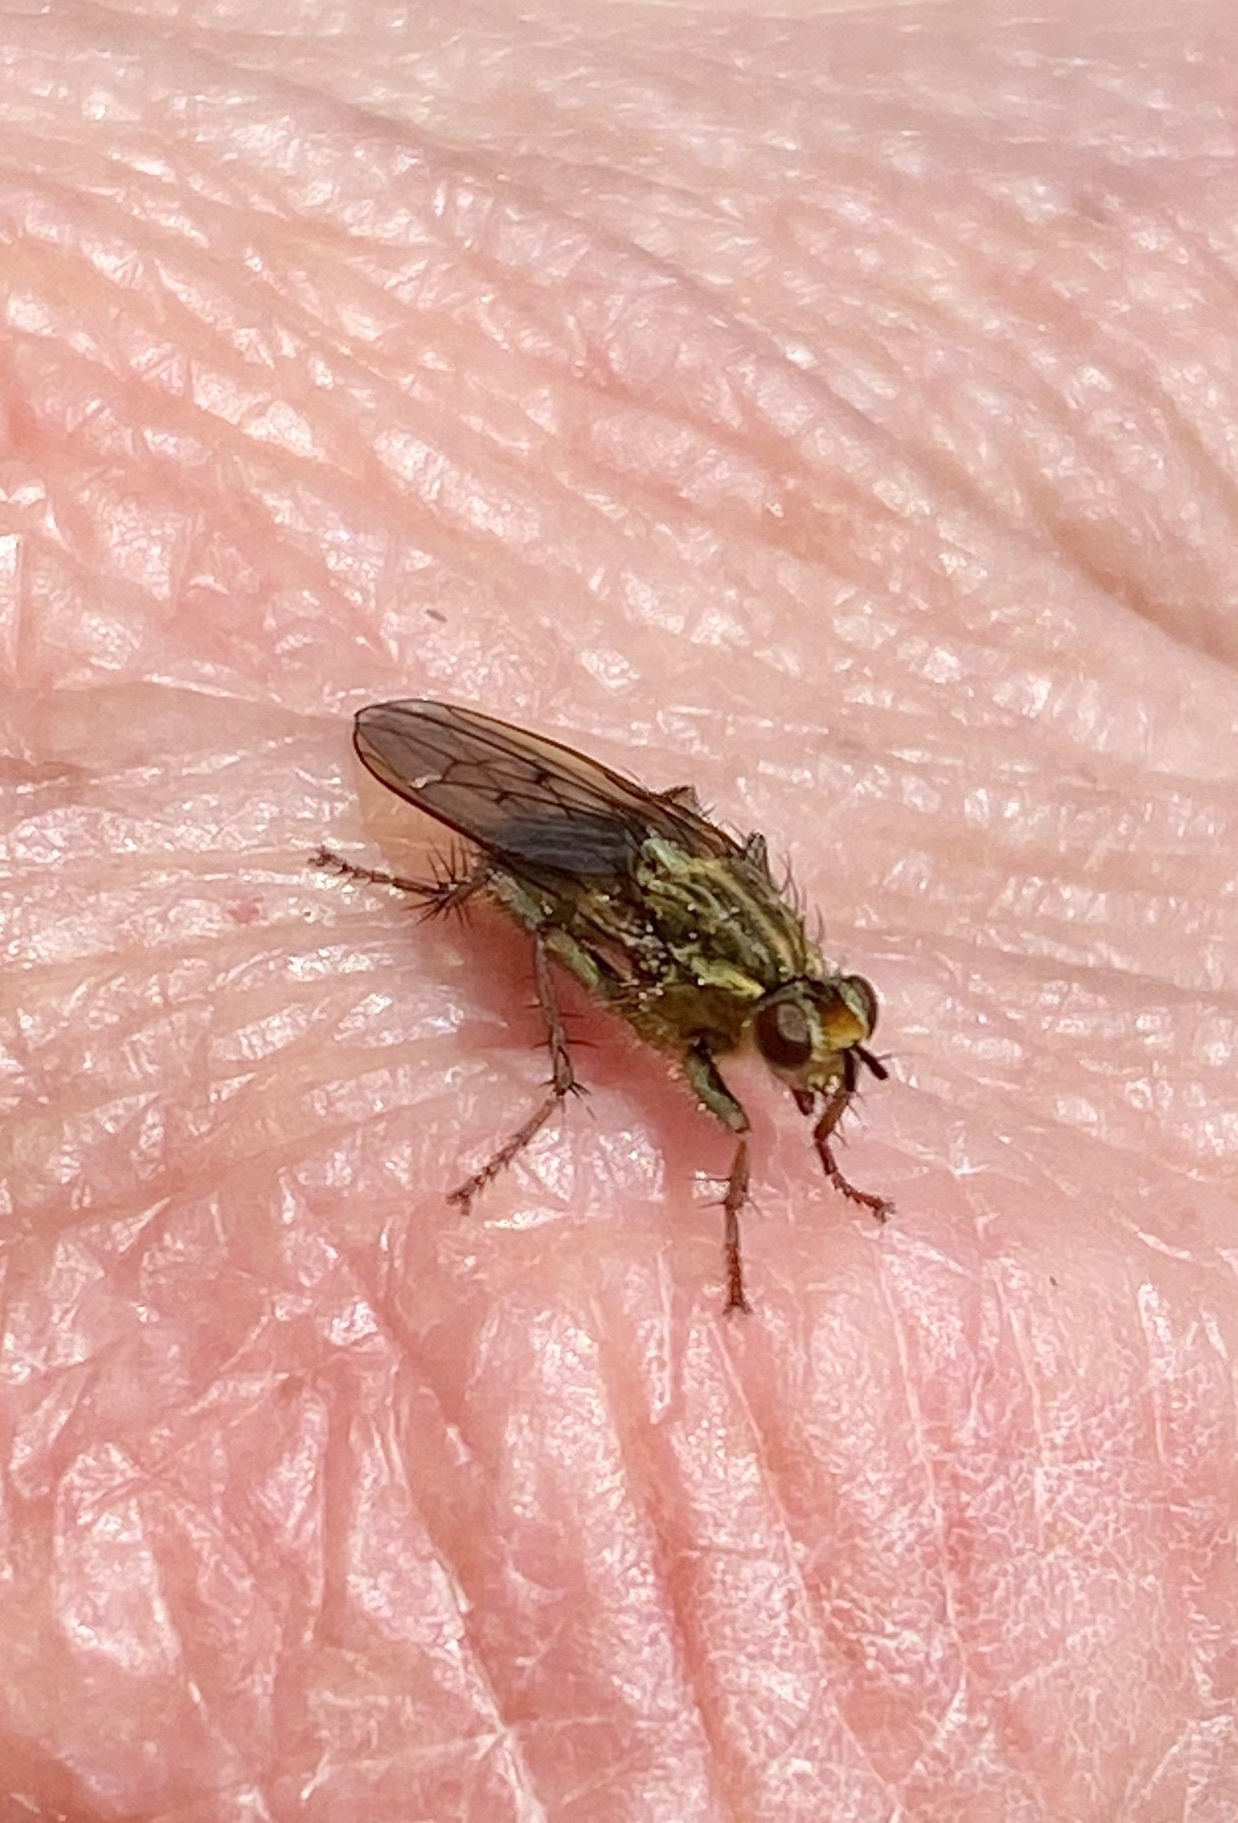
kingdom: Animalia
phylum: Arthropoda
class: Insecta
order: Diptera
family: Scathophagidae
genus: Scathophaga
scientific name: Scathophaga stercoraria
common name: Yellow dung fly
